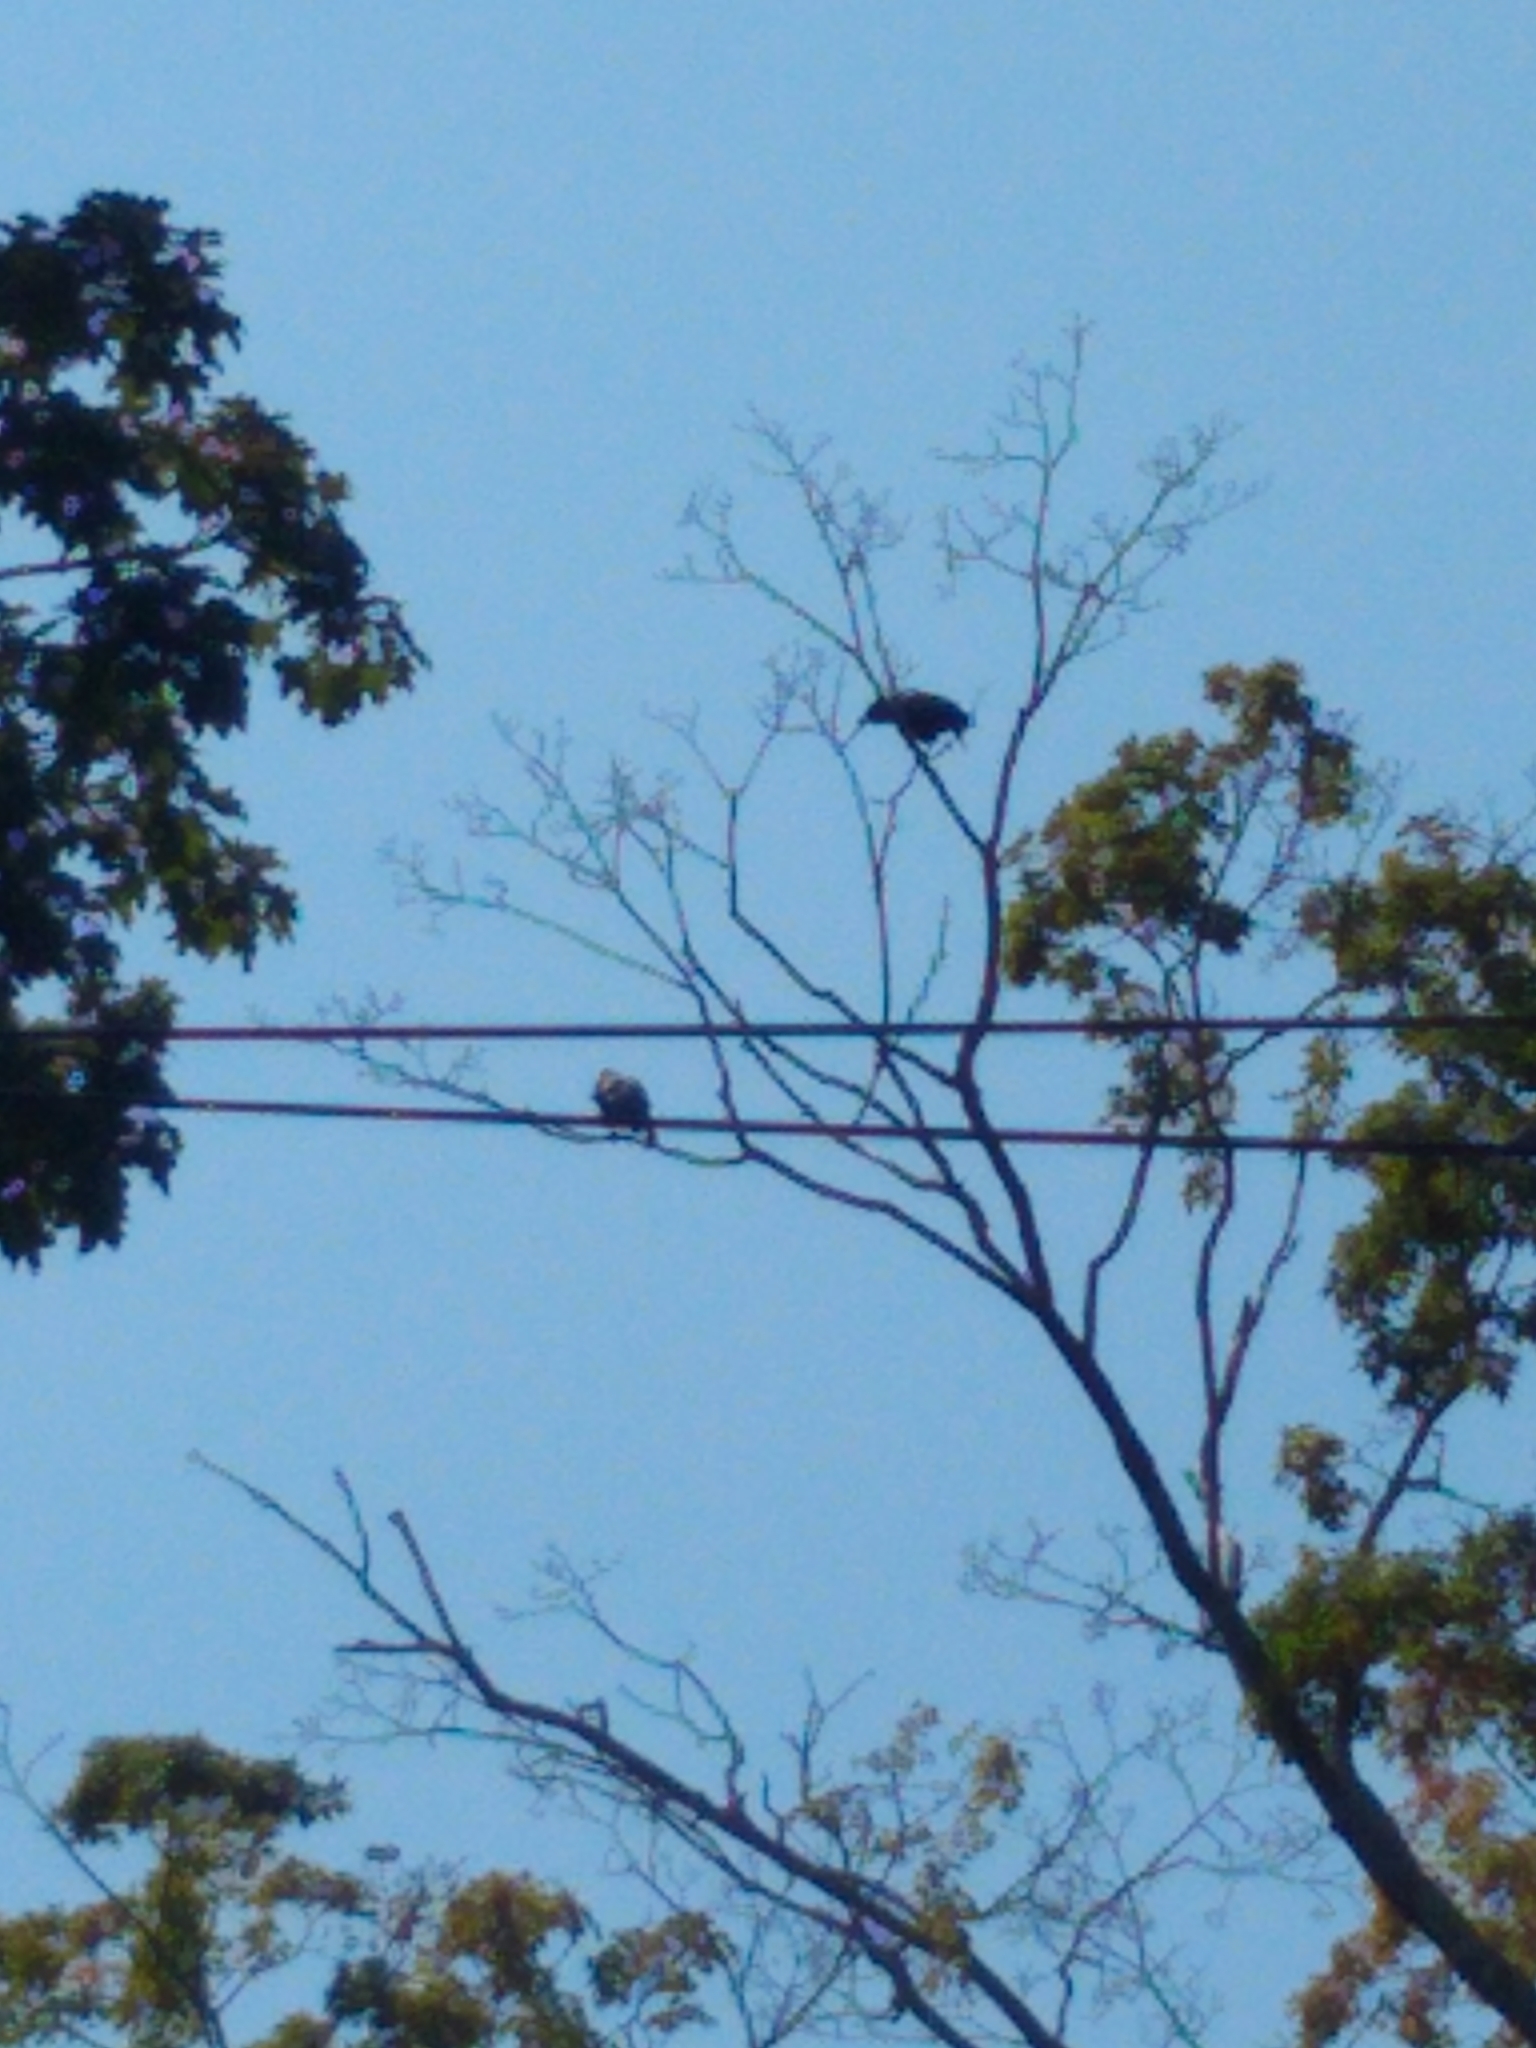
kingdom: Animalia
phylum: Chordata
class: Aves
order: Passeriformes
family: Corvidae
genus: Corvus
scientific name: Corvus brachyrhynchos
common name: American crow
